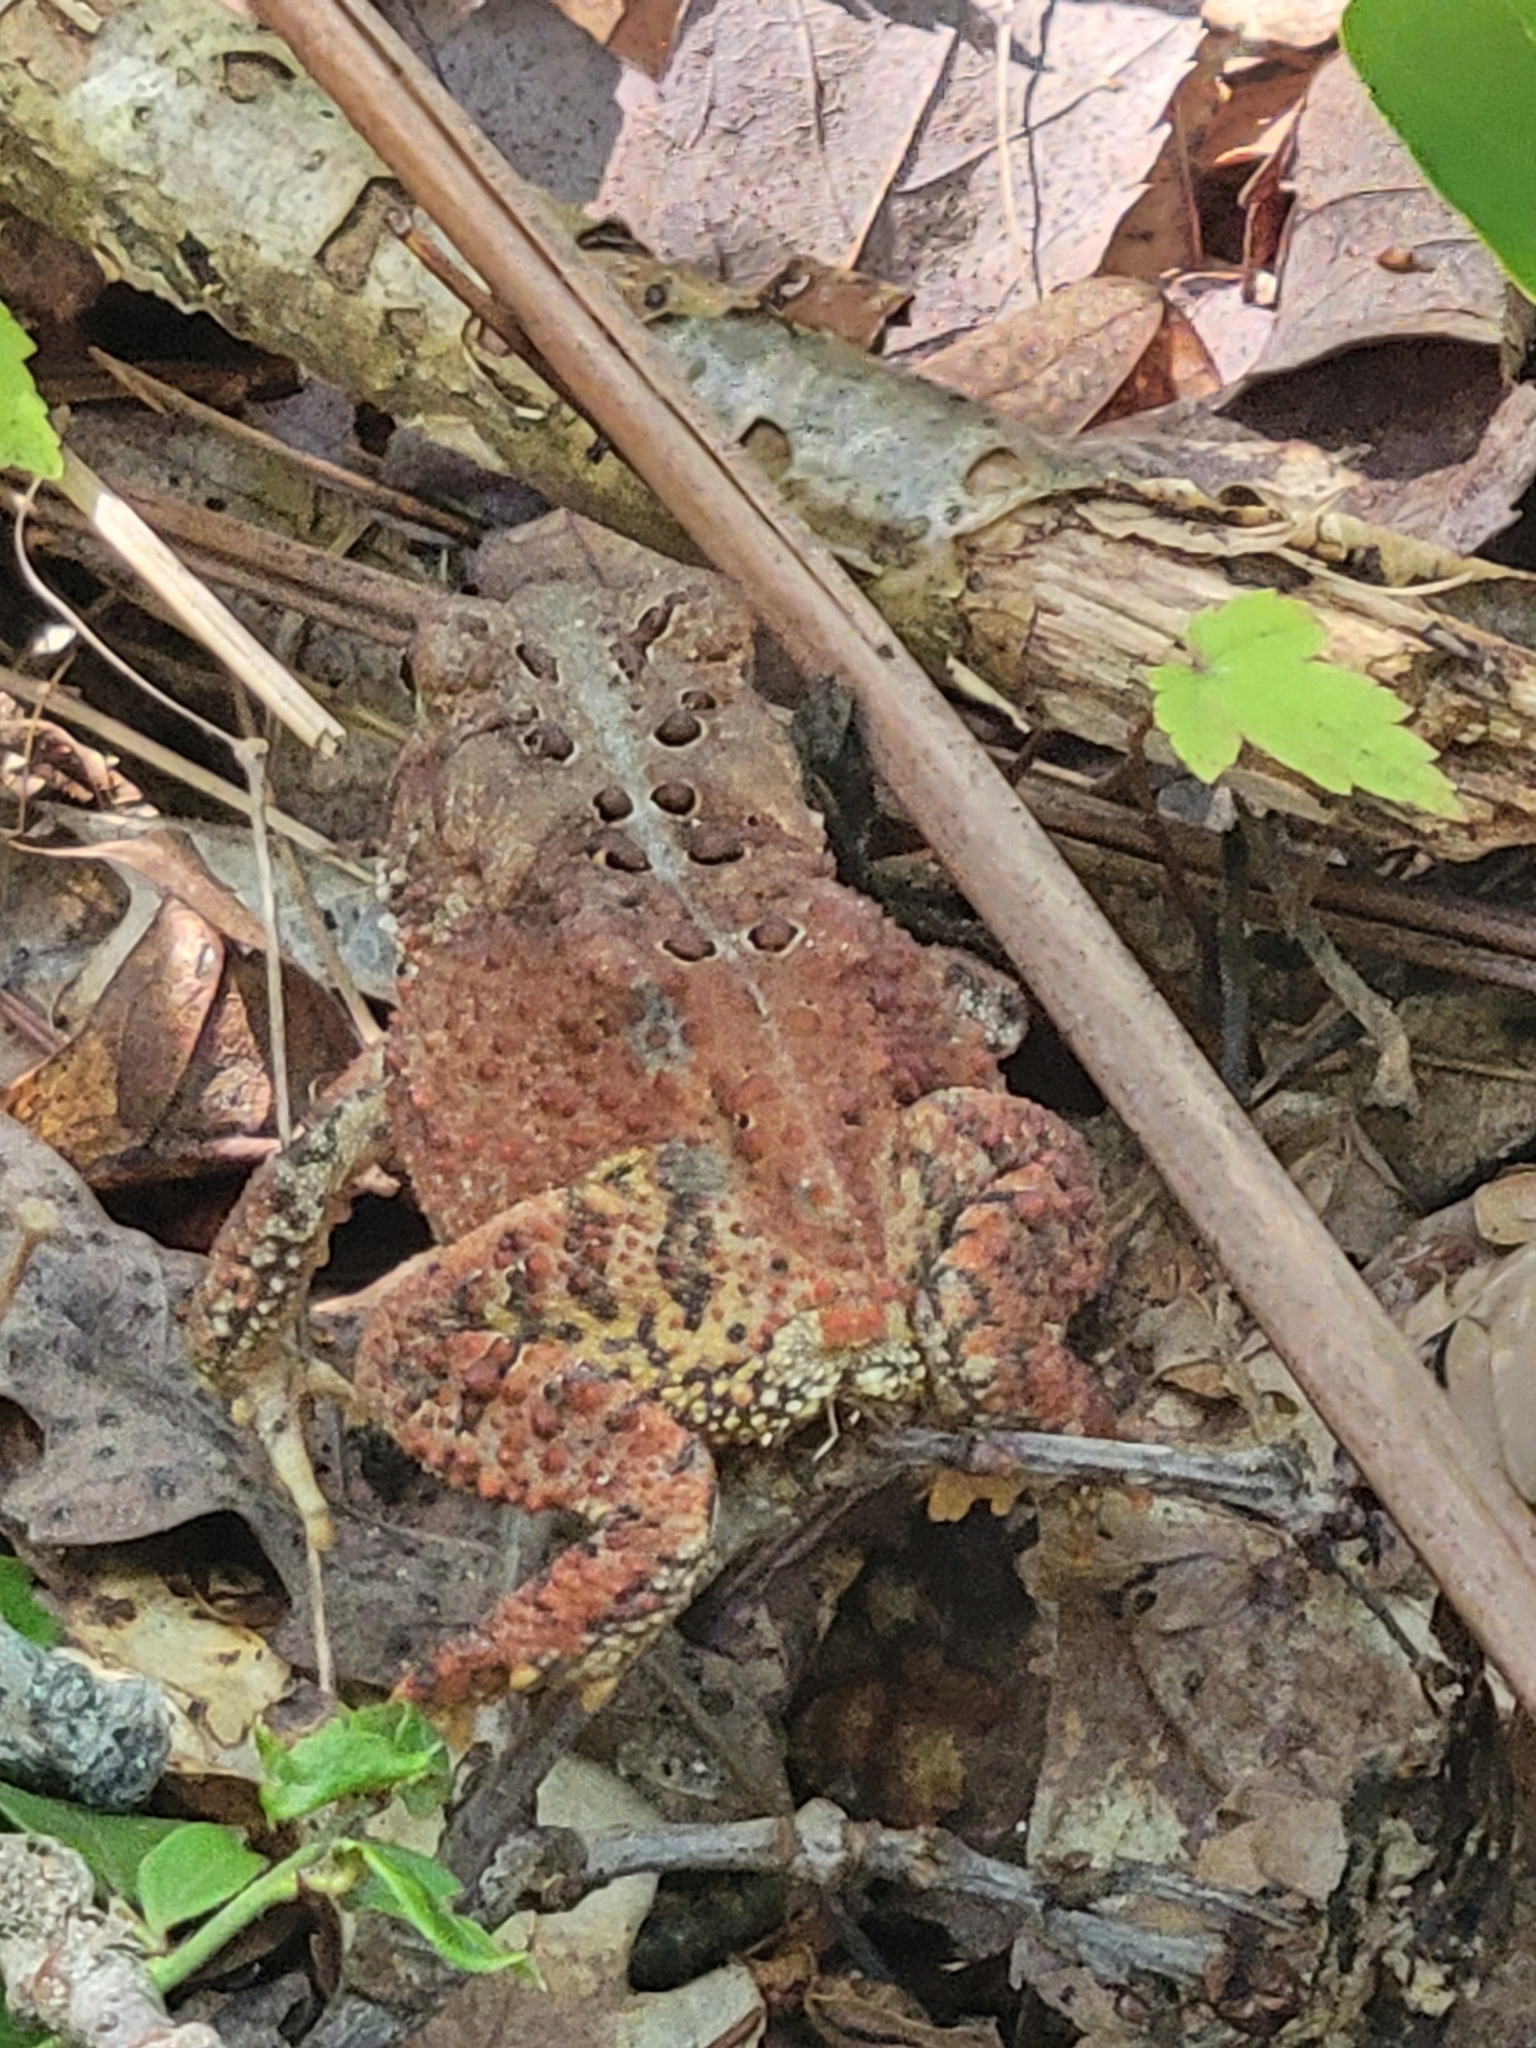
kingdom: Animalia
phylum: Chordata
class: Amphibia
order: Anura
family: Bufonidae
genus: Anaxyrus
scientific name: Anaxyrus americanus
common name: American toad
